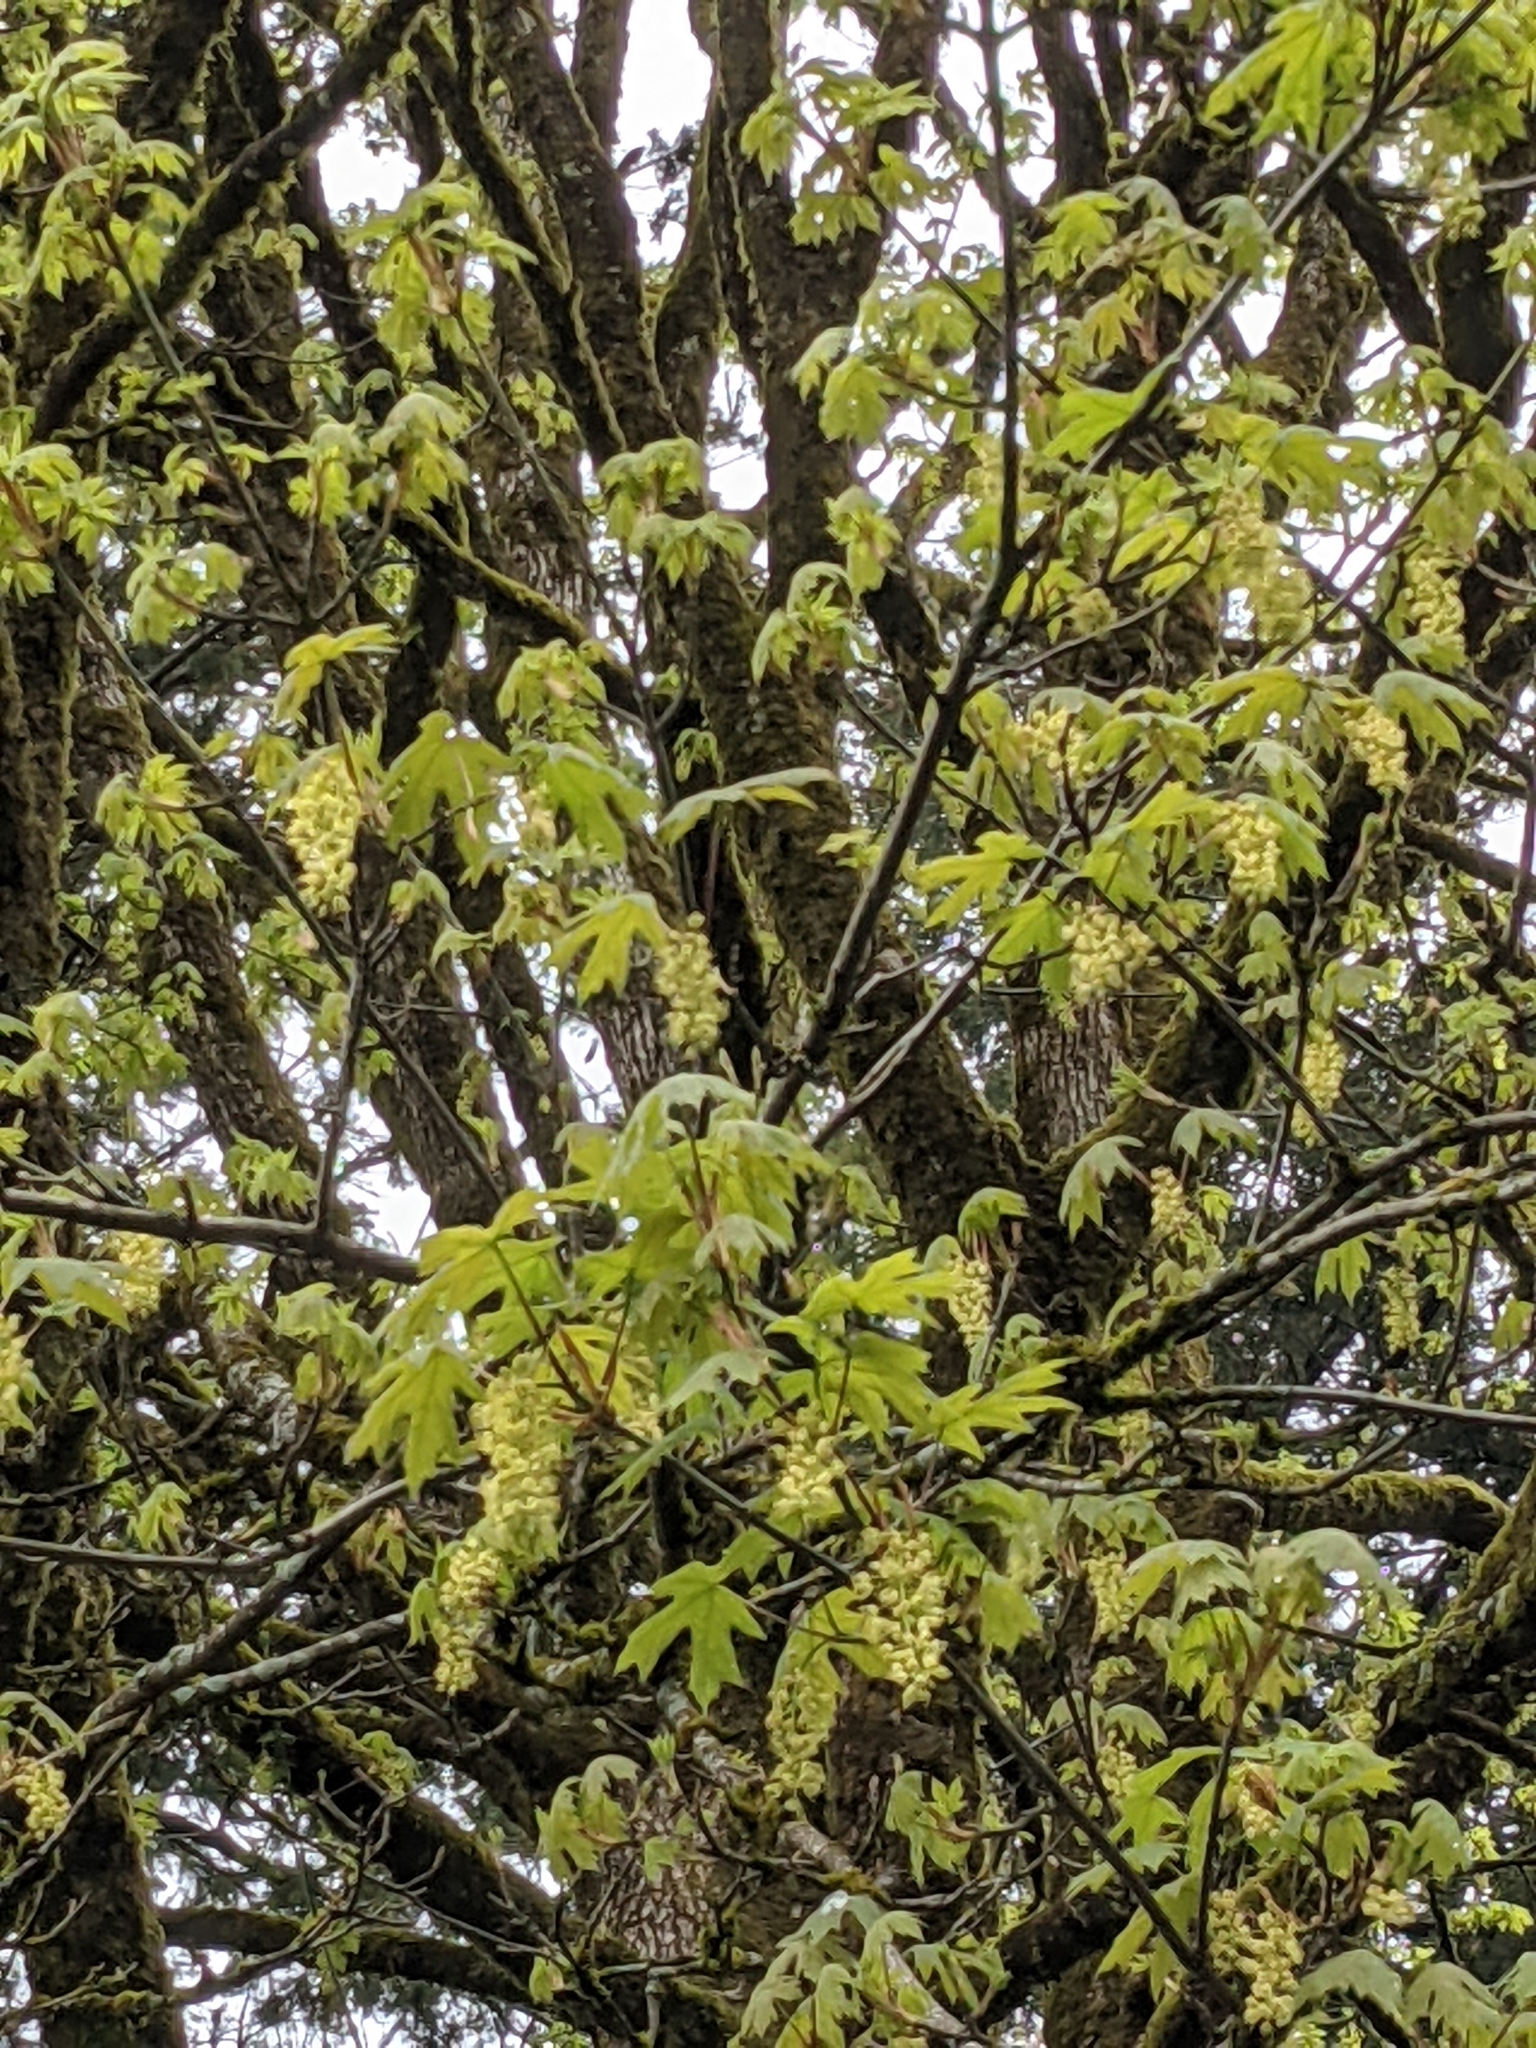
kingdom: Plantae
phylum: Tracheophyta
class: Magnoliopsida
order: Sapindales
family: Sapindaceae
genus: Acer
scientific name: Acer macrophyllum
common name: Oregon maple
